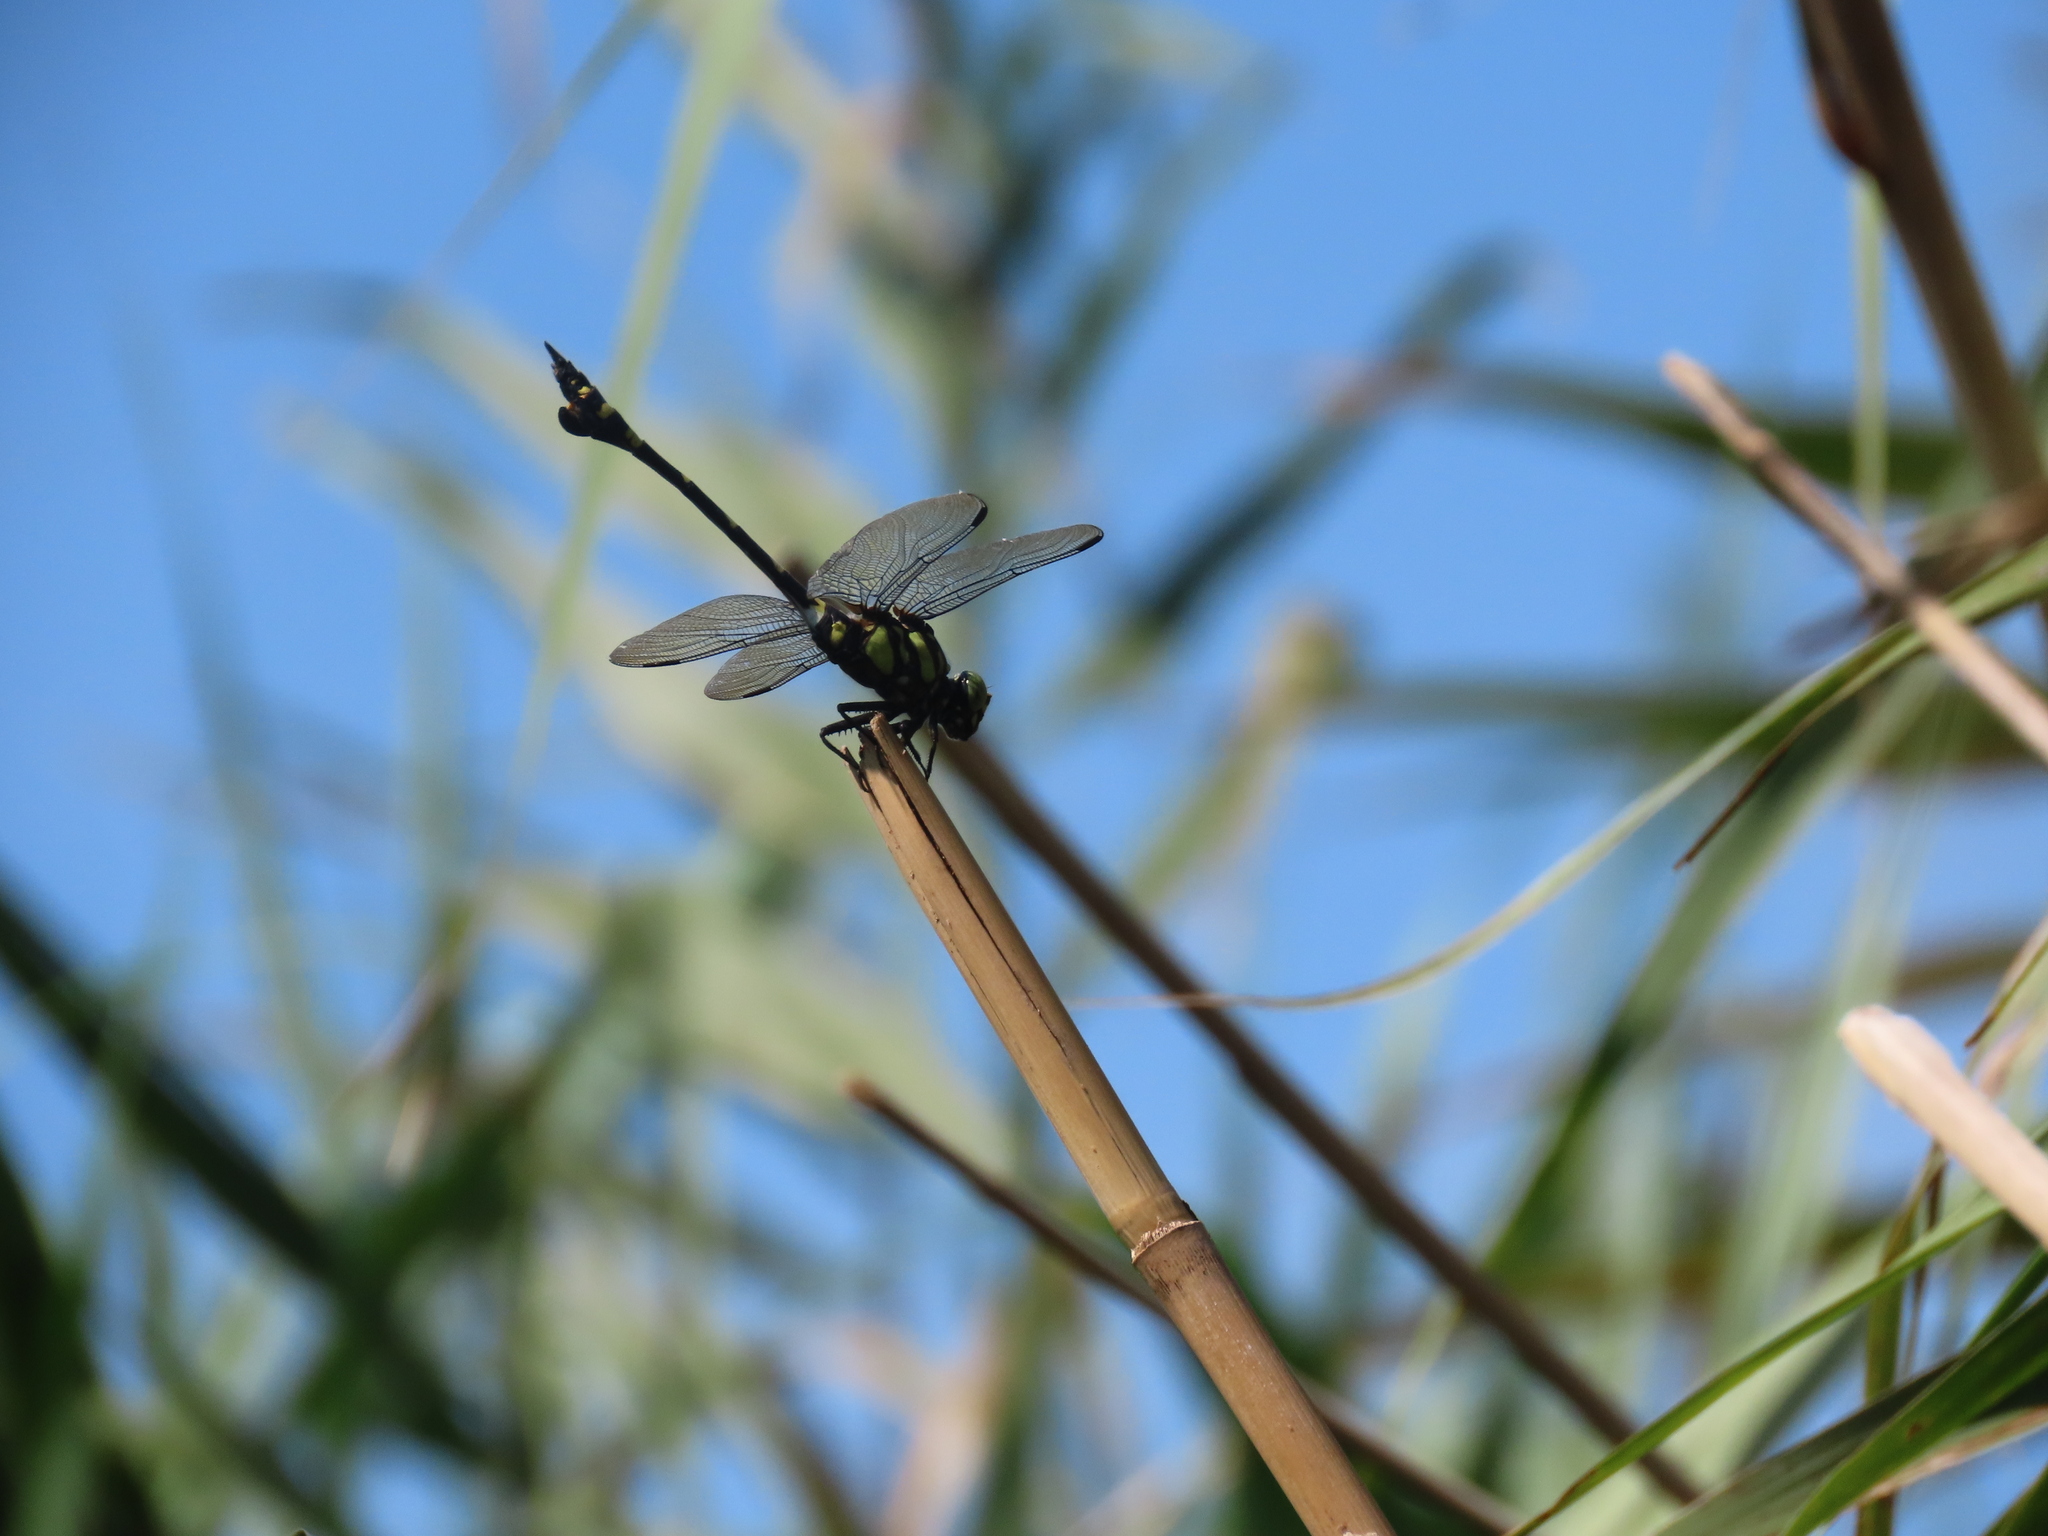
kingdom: Animalia
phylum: Arthropoda
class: Insecta
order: Odonata
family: Gomphidae
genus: Ictinogomphus
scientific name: Ictinogomphus rapax
